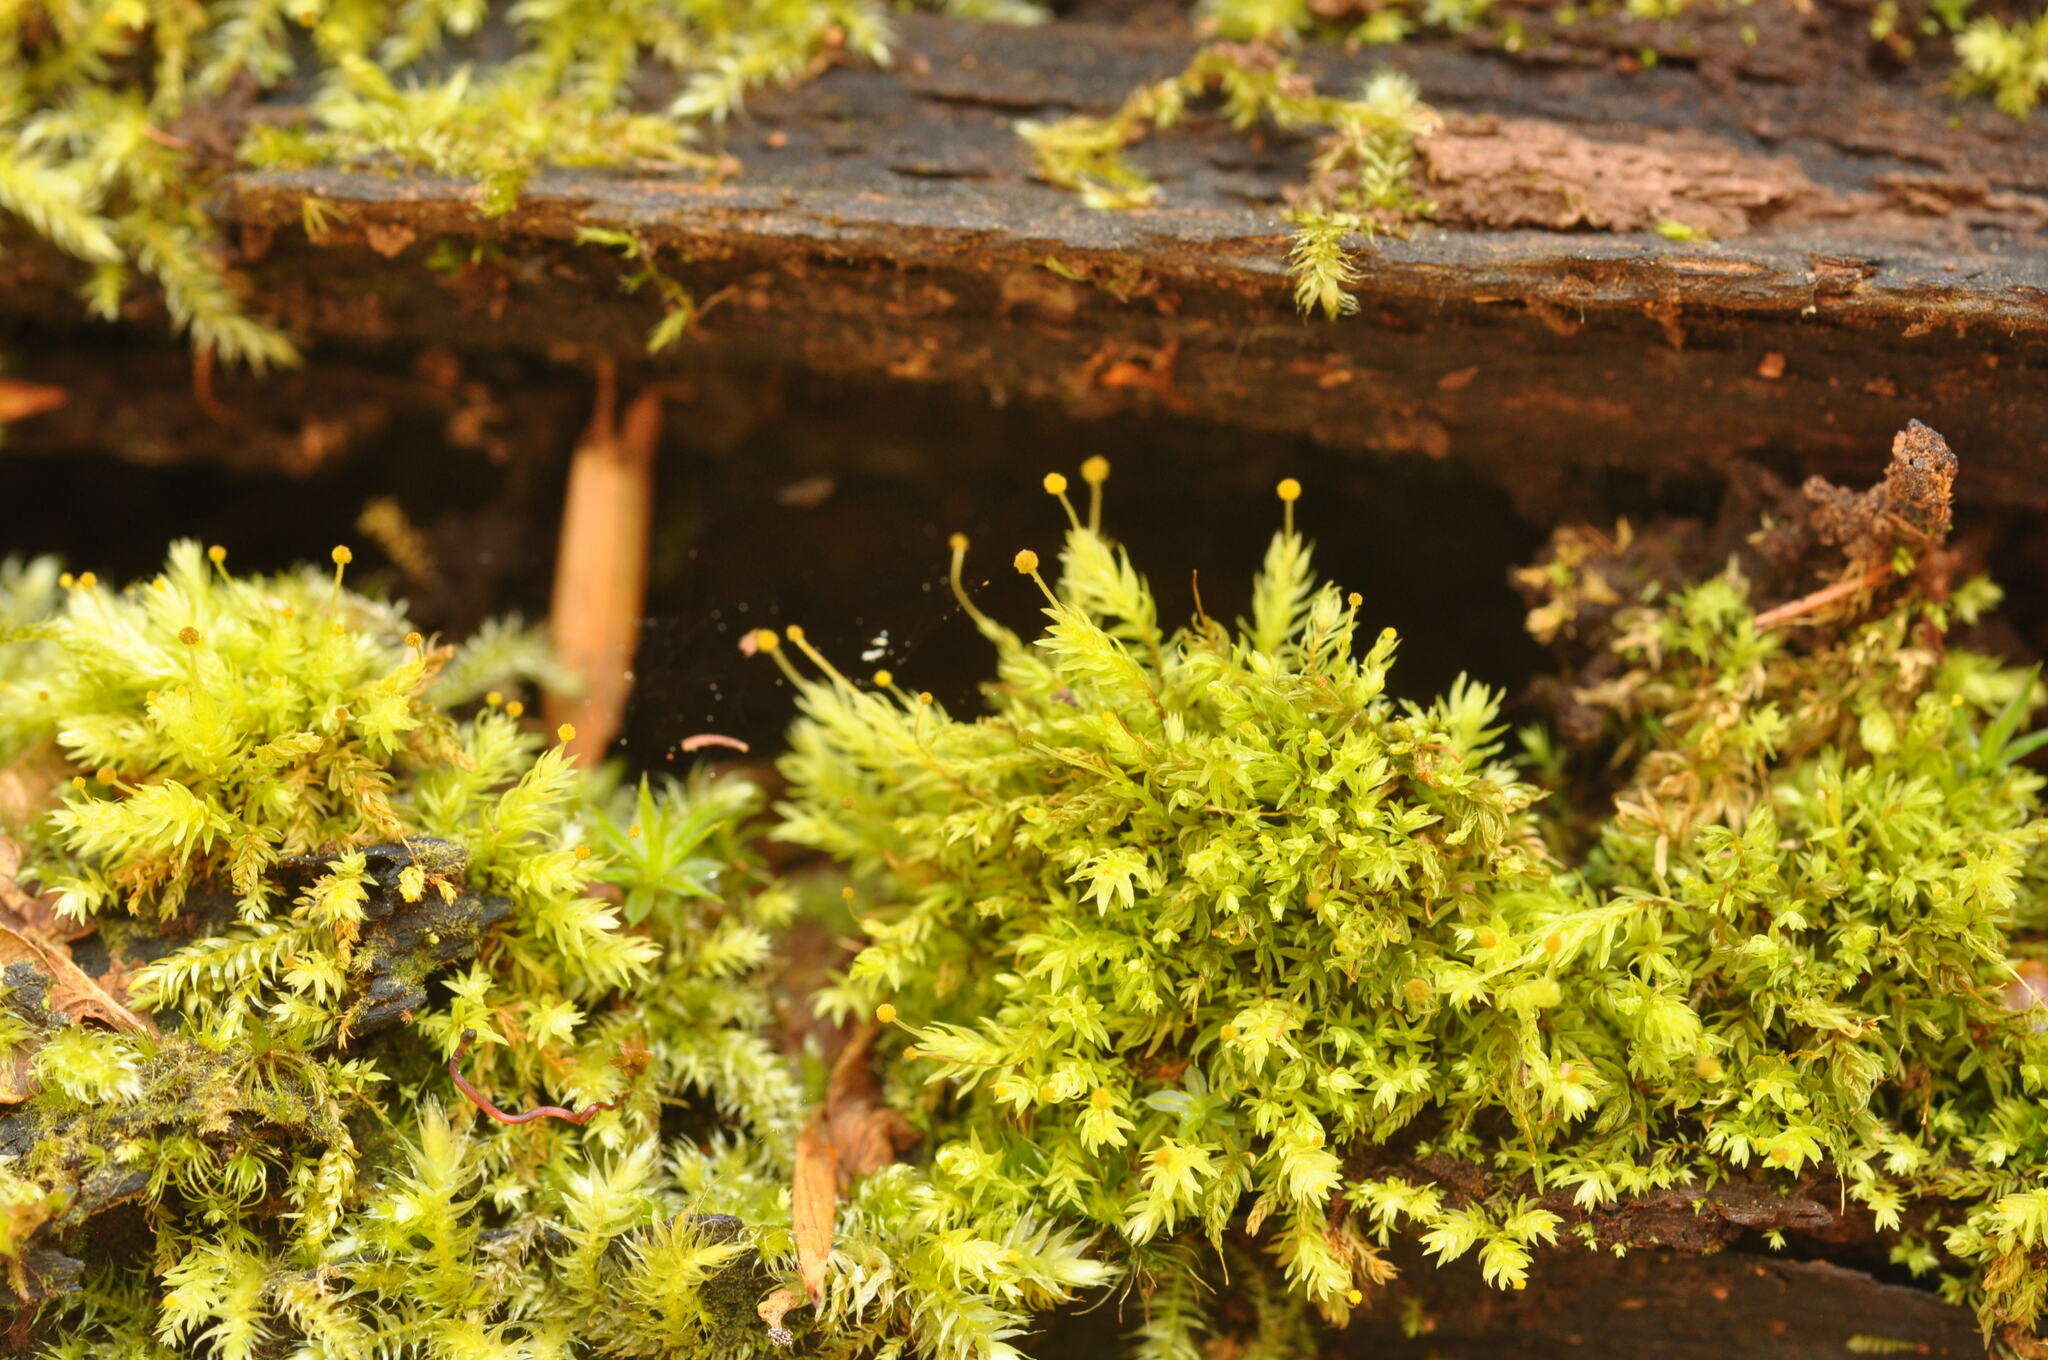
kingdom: Plantae
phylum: Bryophyta
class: Bryopsida
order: Aulacomniales
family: Aulacomniaceae
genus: Aulacomnium
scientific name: Aulacomnium androgynum
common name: Little groove moss
